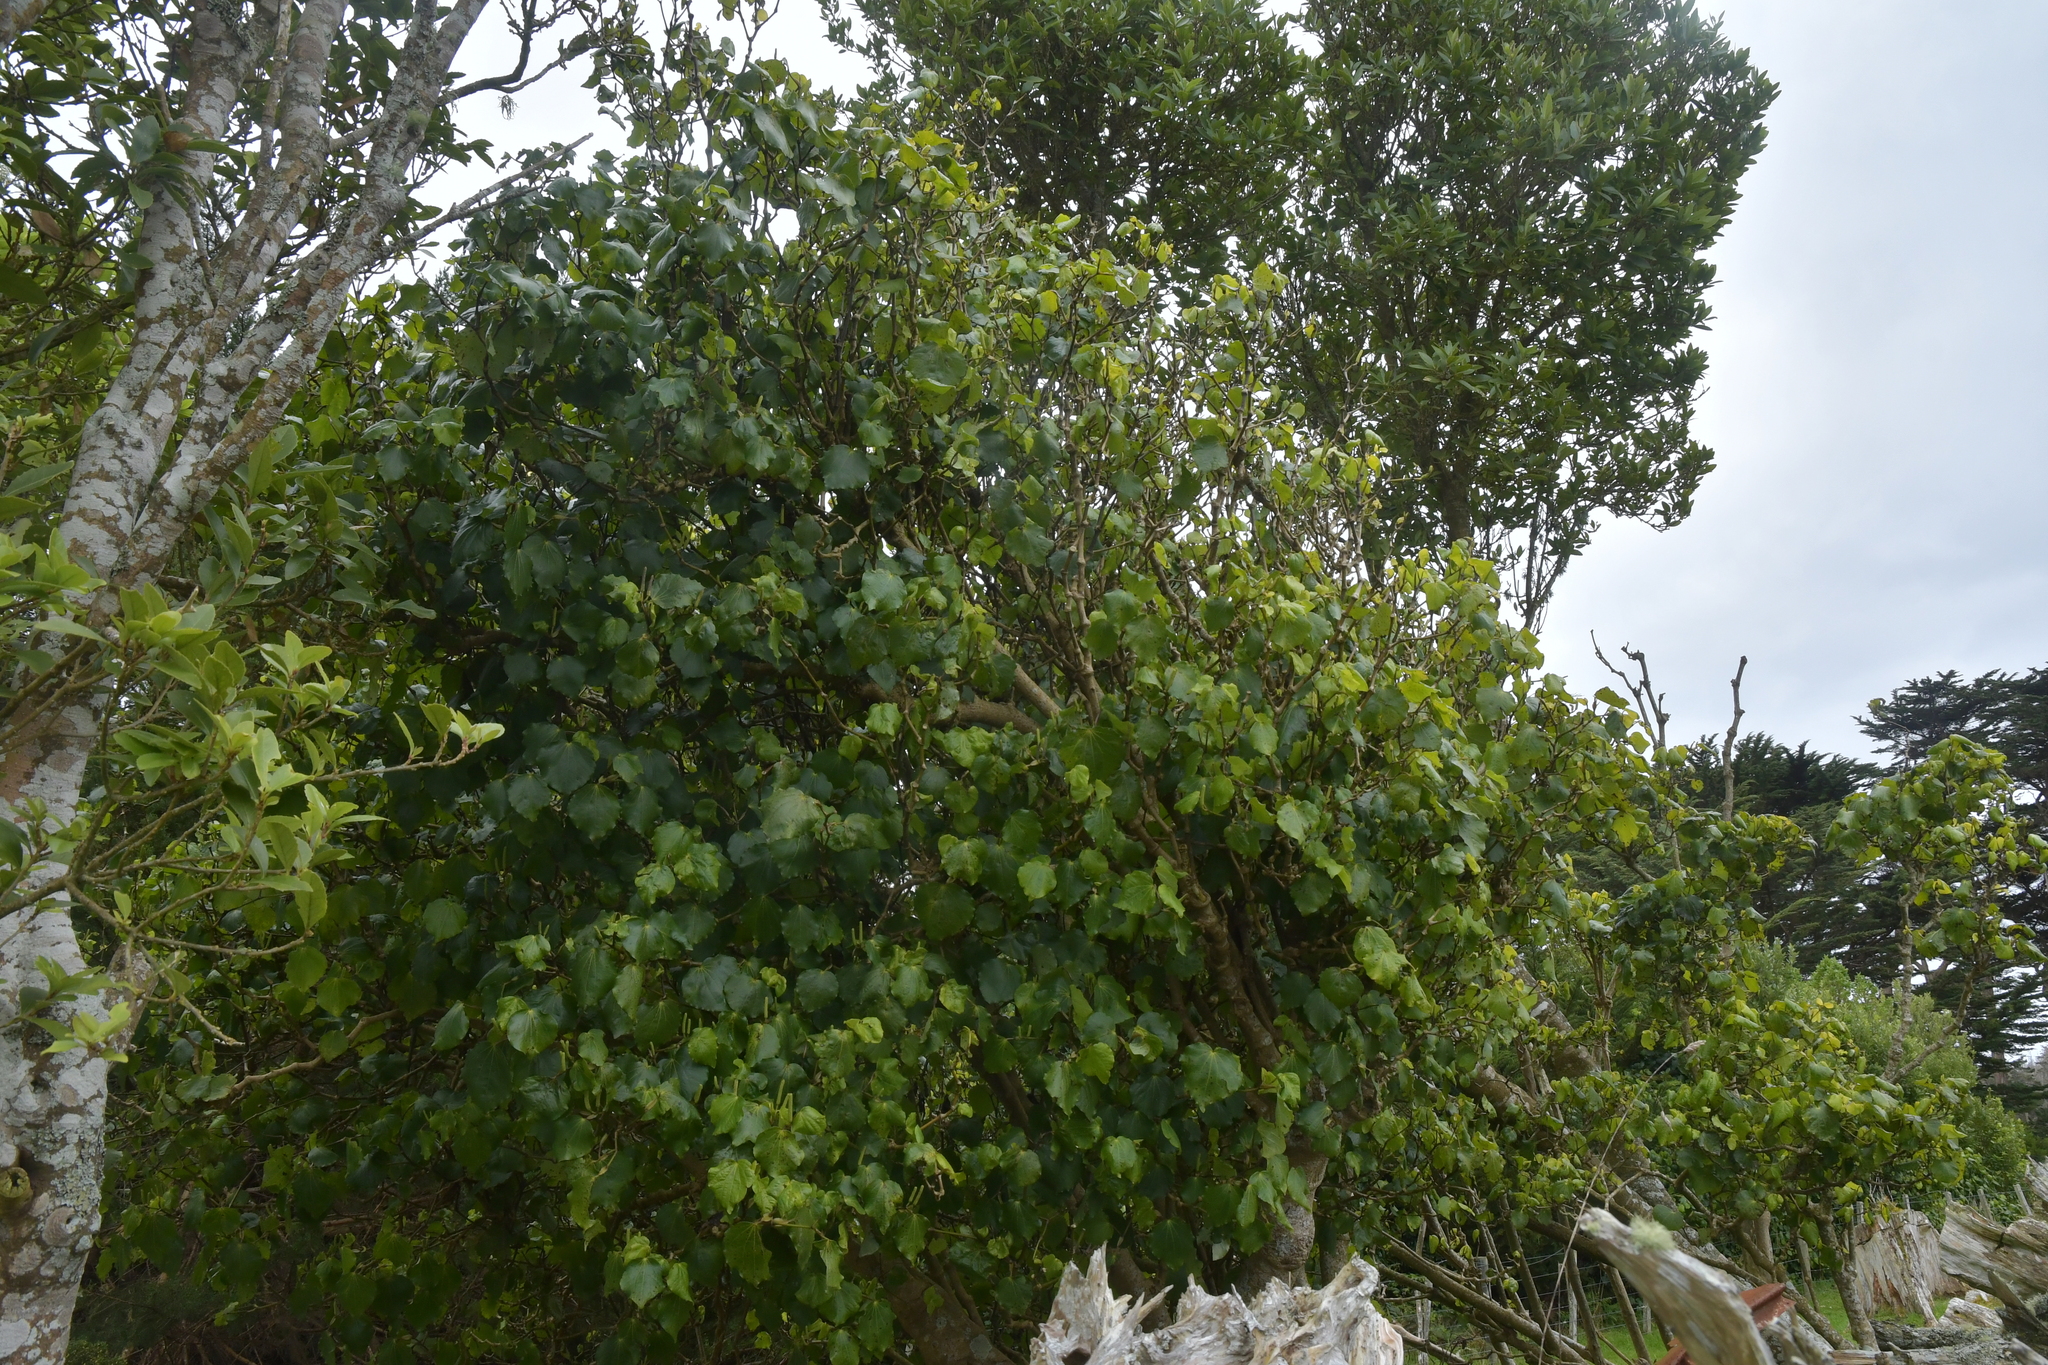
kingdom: Plantae
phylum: Tracheophyta
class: Magnoliopsida
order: Piperales
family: Piperaceae
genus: Macropiper
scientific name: Macropiper excelsum
